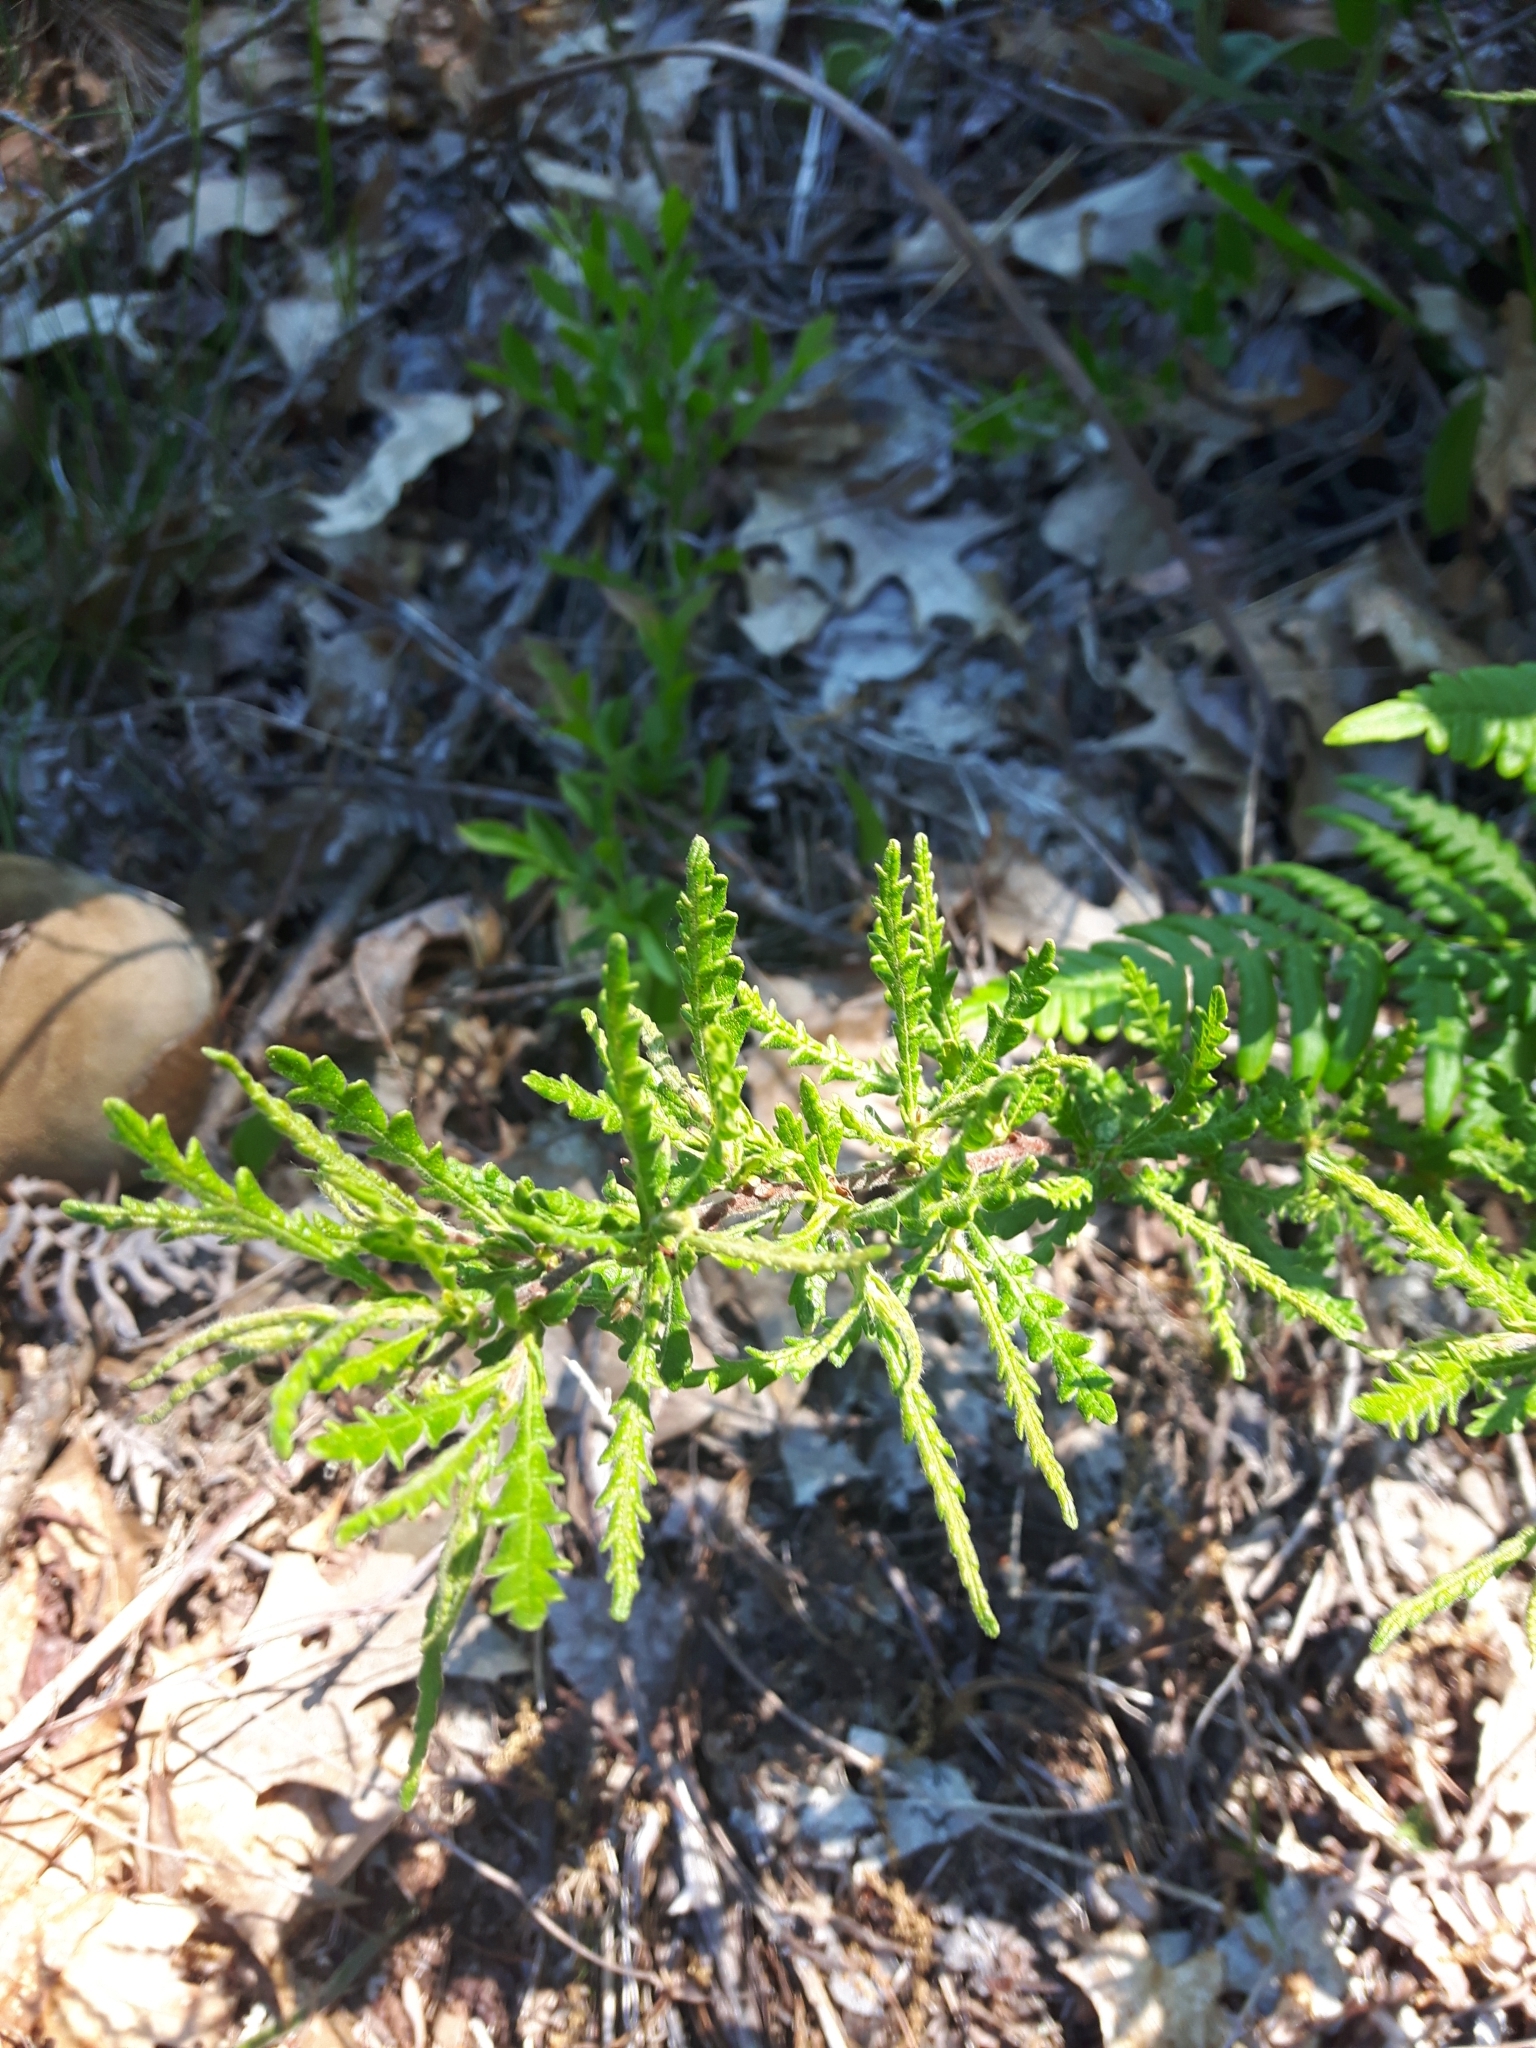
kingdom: Plantae
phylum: Tracheophyta
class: Magnoliopsida
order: Fagales
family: Myricaceae
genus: Comptonia
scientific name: Comptonia peregrina
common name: Sweet-fern
